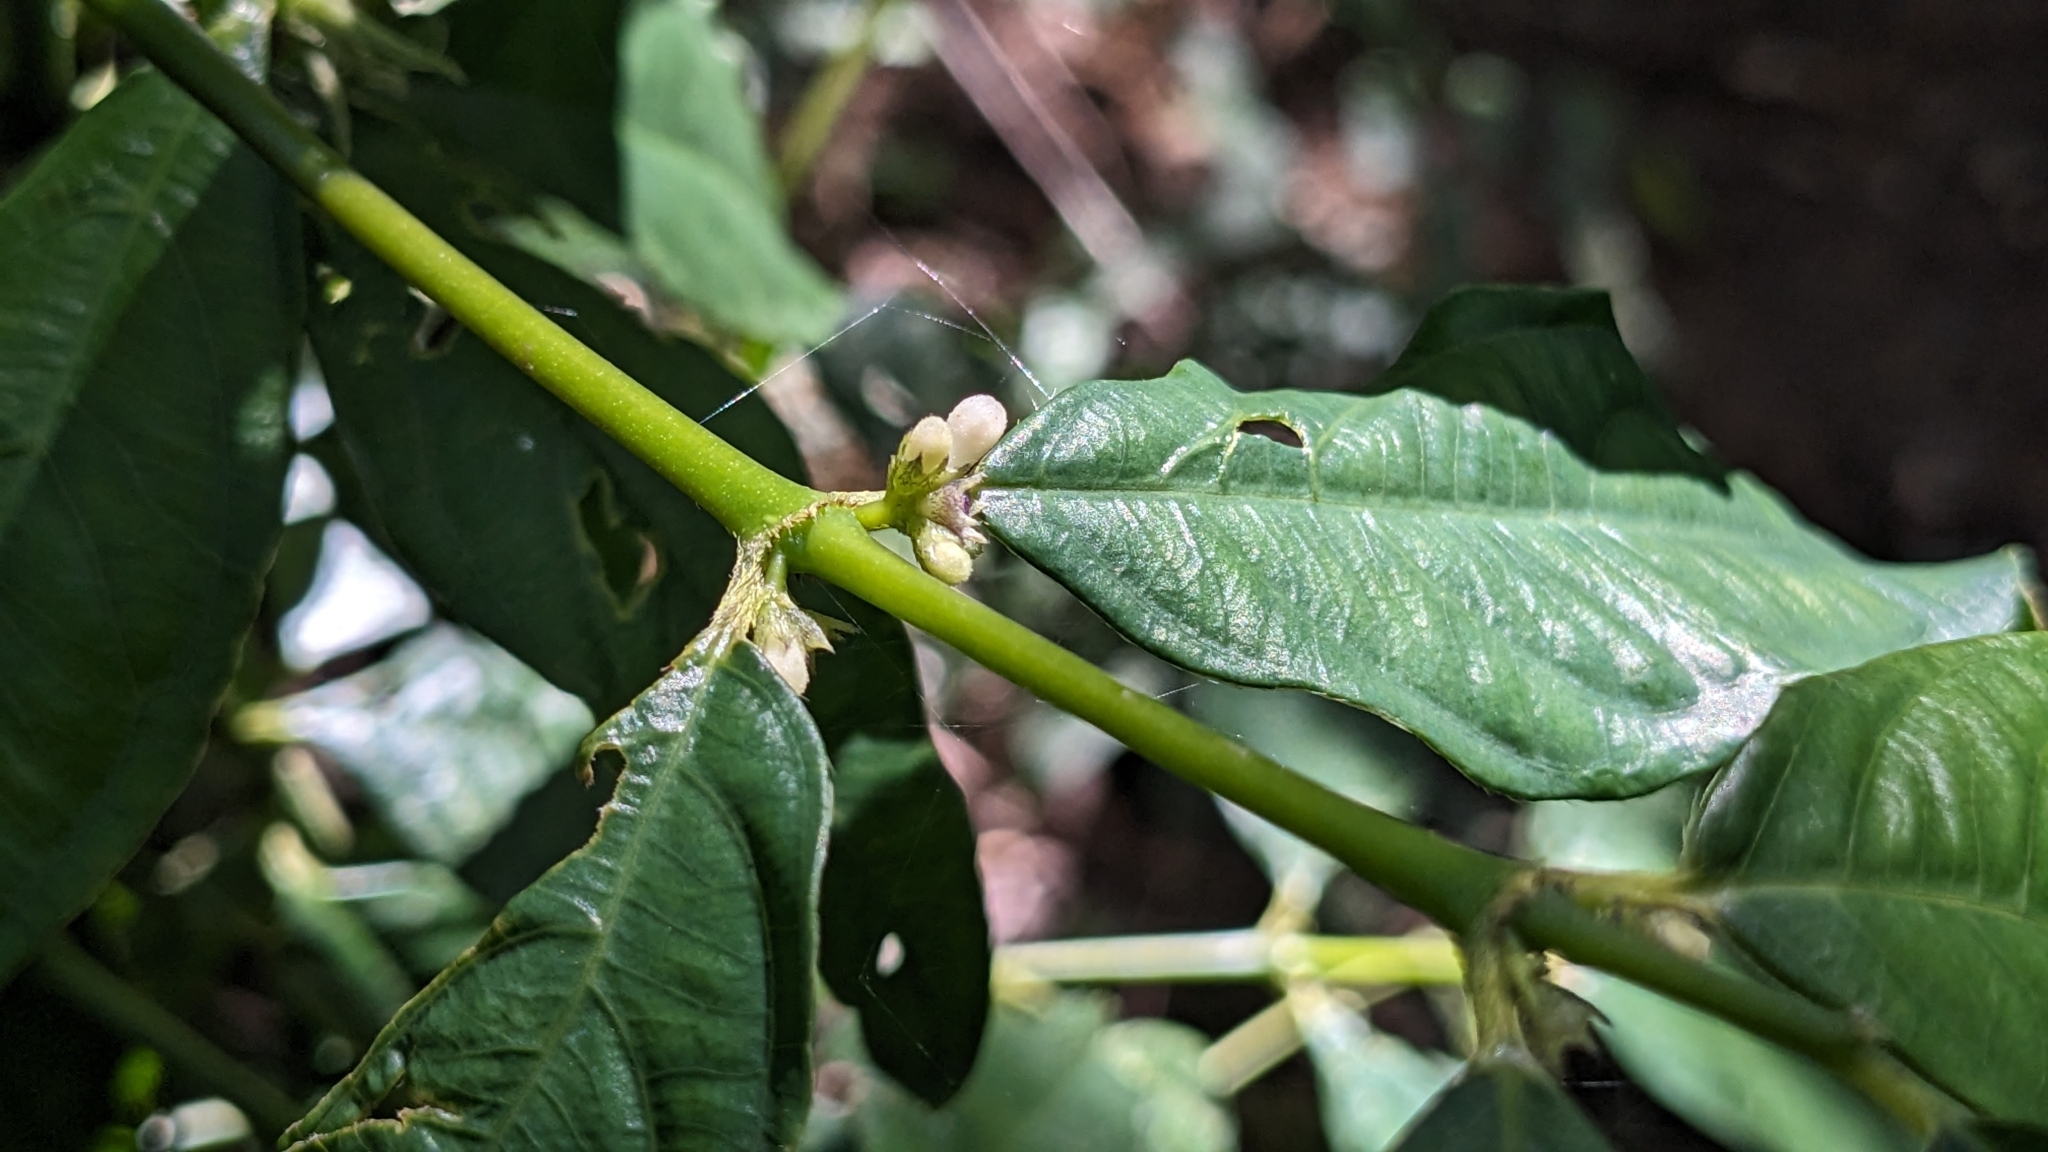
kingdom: Plantae
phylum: Tracheophyta
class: Magnoliopsida
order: Gentianales
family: Rubiaceae
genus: Lasianthus
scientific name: Lasianthus micranthus
